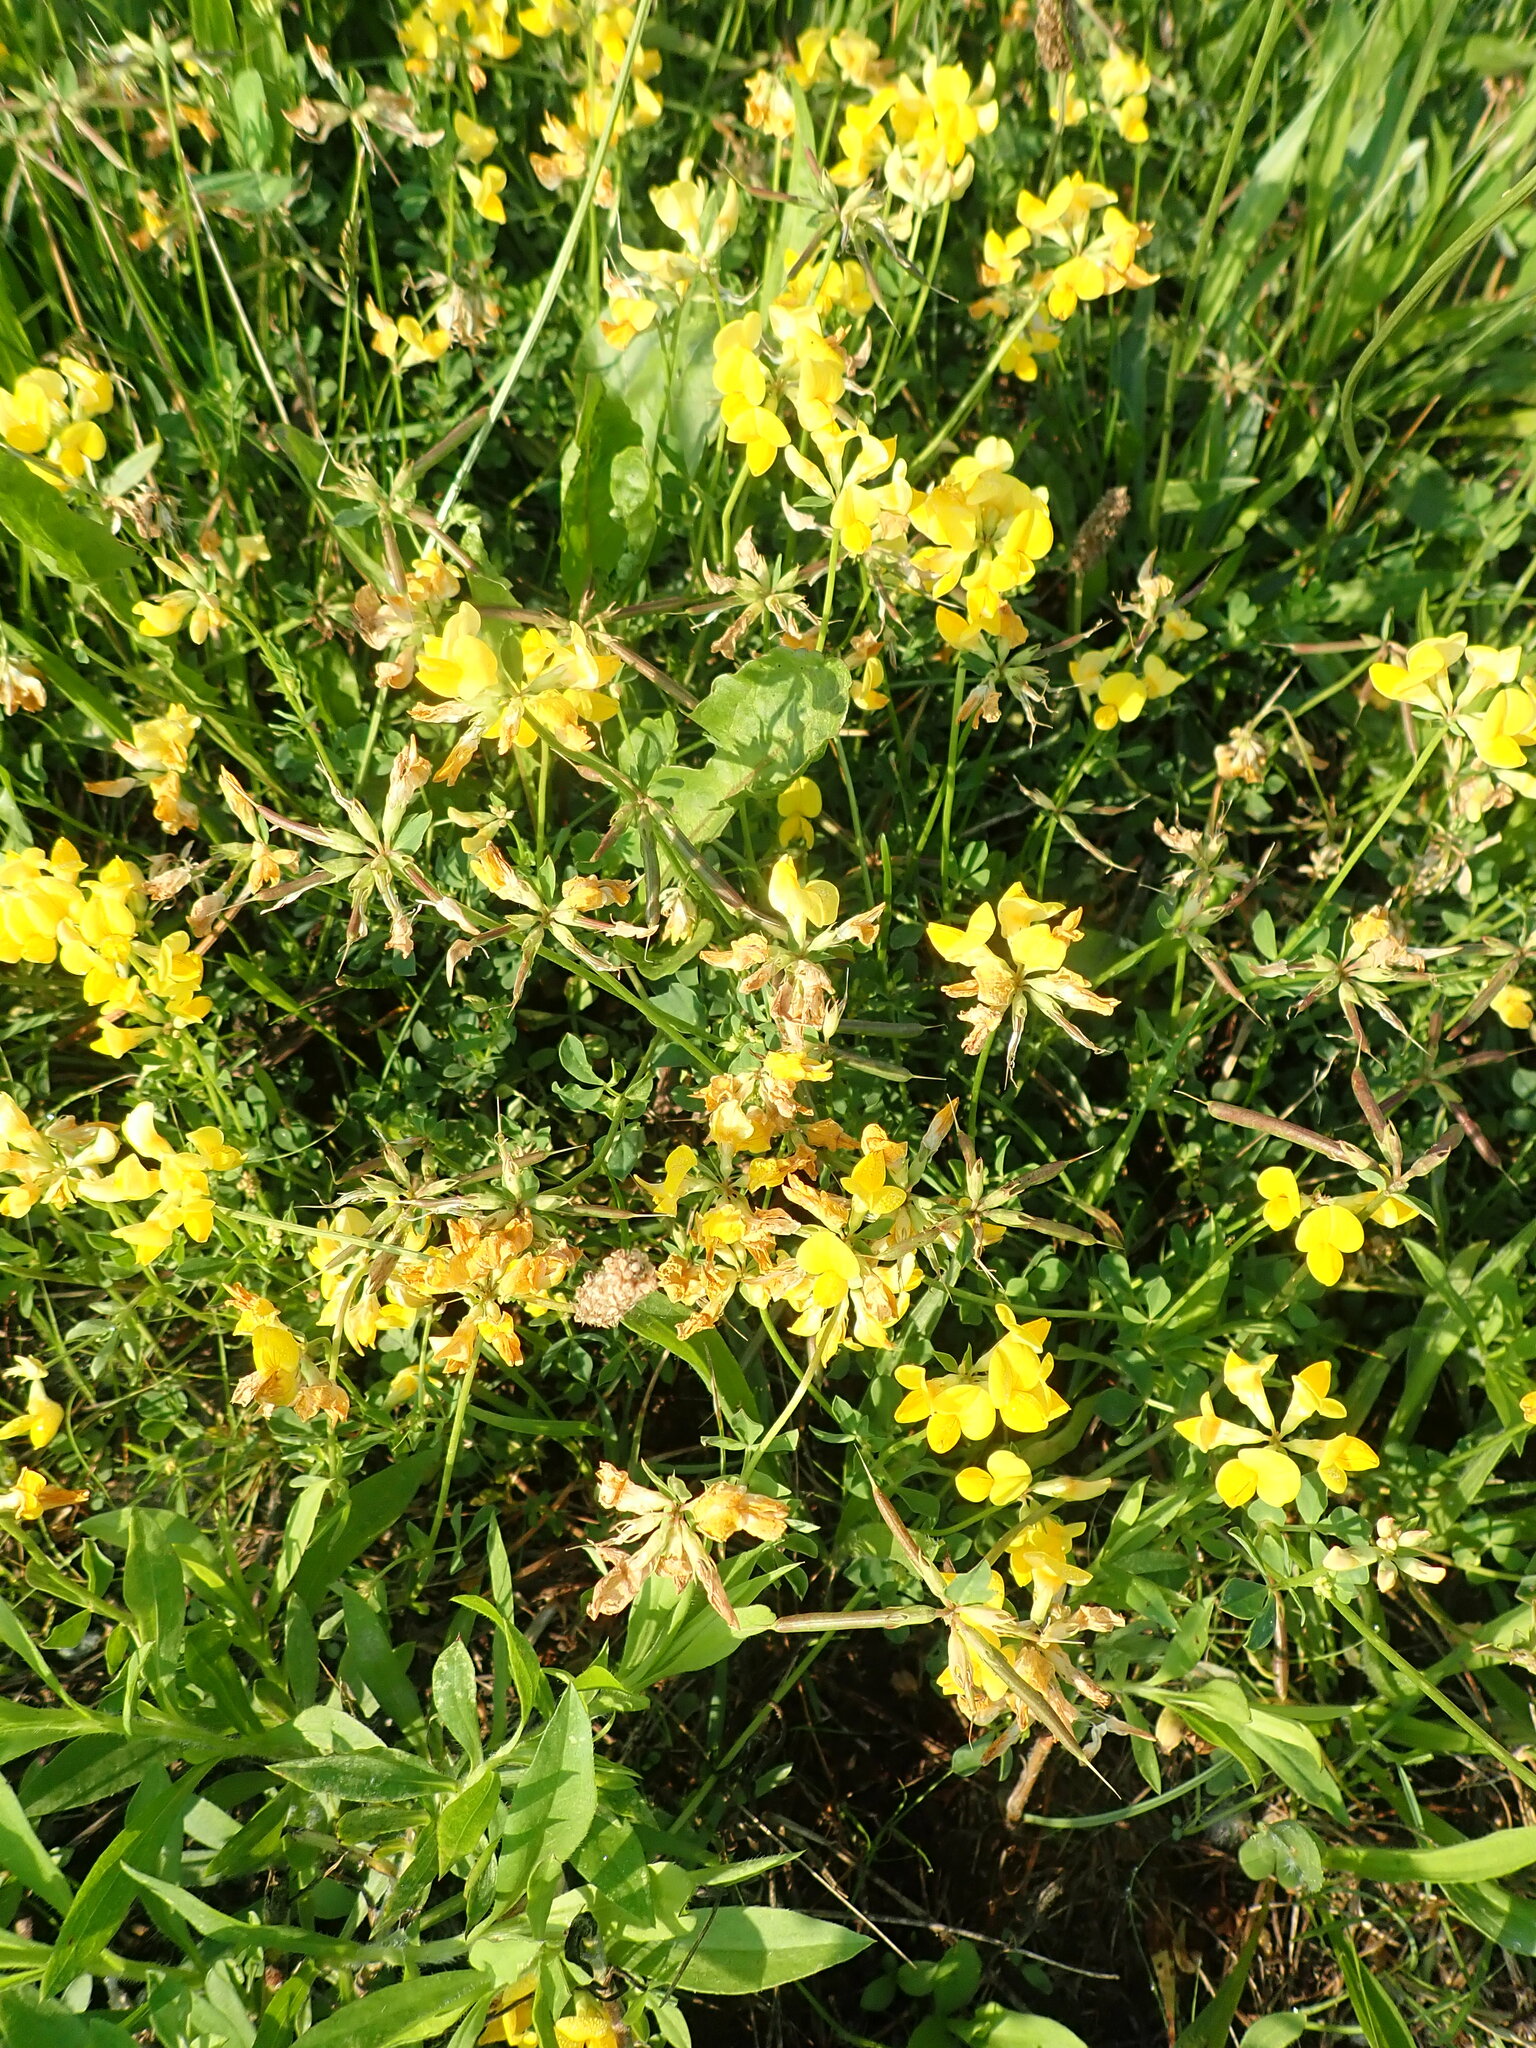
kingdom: Plantae
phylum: Tracheophyta
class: Magnoliopsida
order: Fabales
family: Fabaceae
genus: Lotus
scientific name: Lotus corniculatus
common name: Common bird's-foot-trefoil
